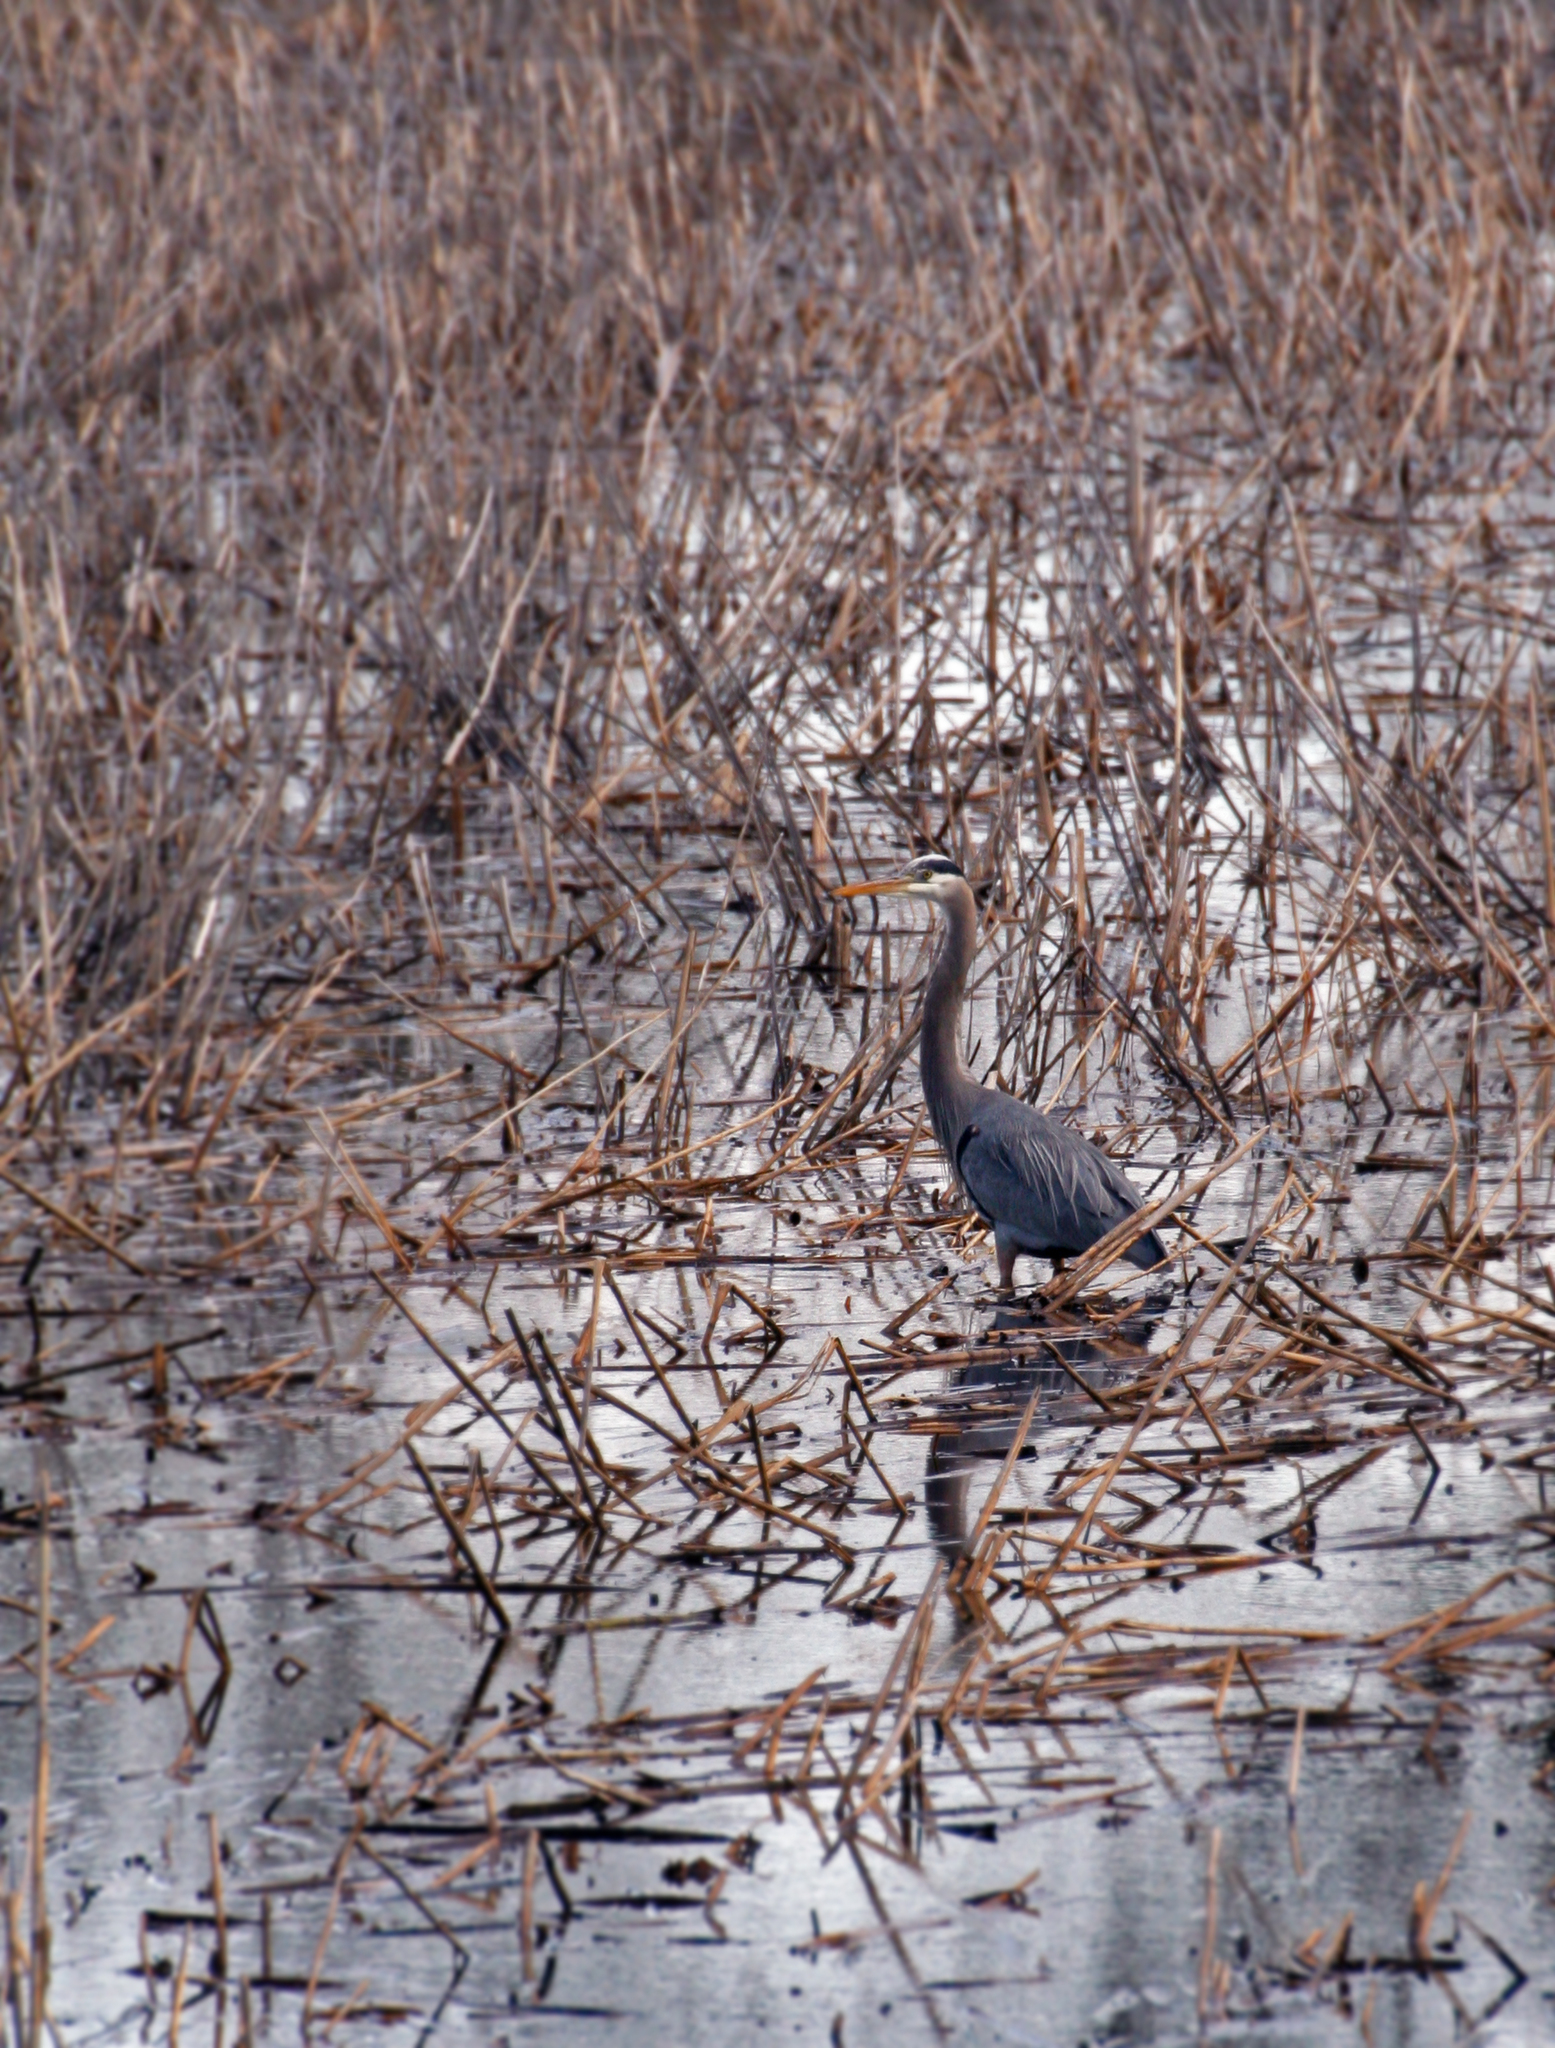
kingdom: Animalia
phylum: Chordata
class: Aves
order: Pelecaniformes
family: Ardeidae
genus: Ardea
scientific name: Ardea herodias
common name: Great blue heron
